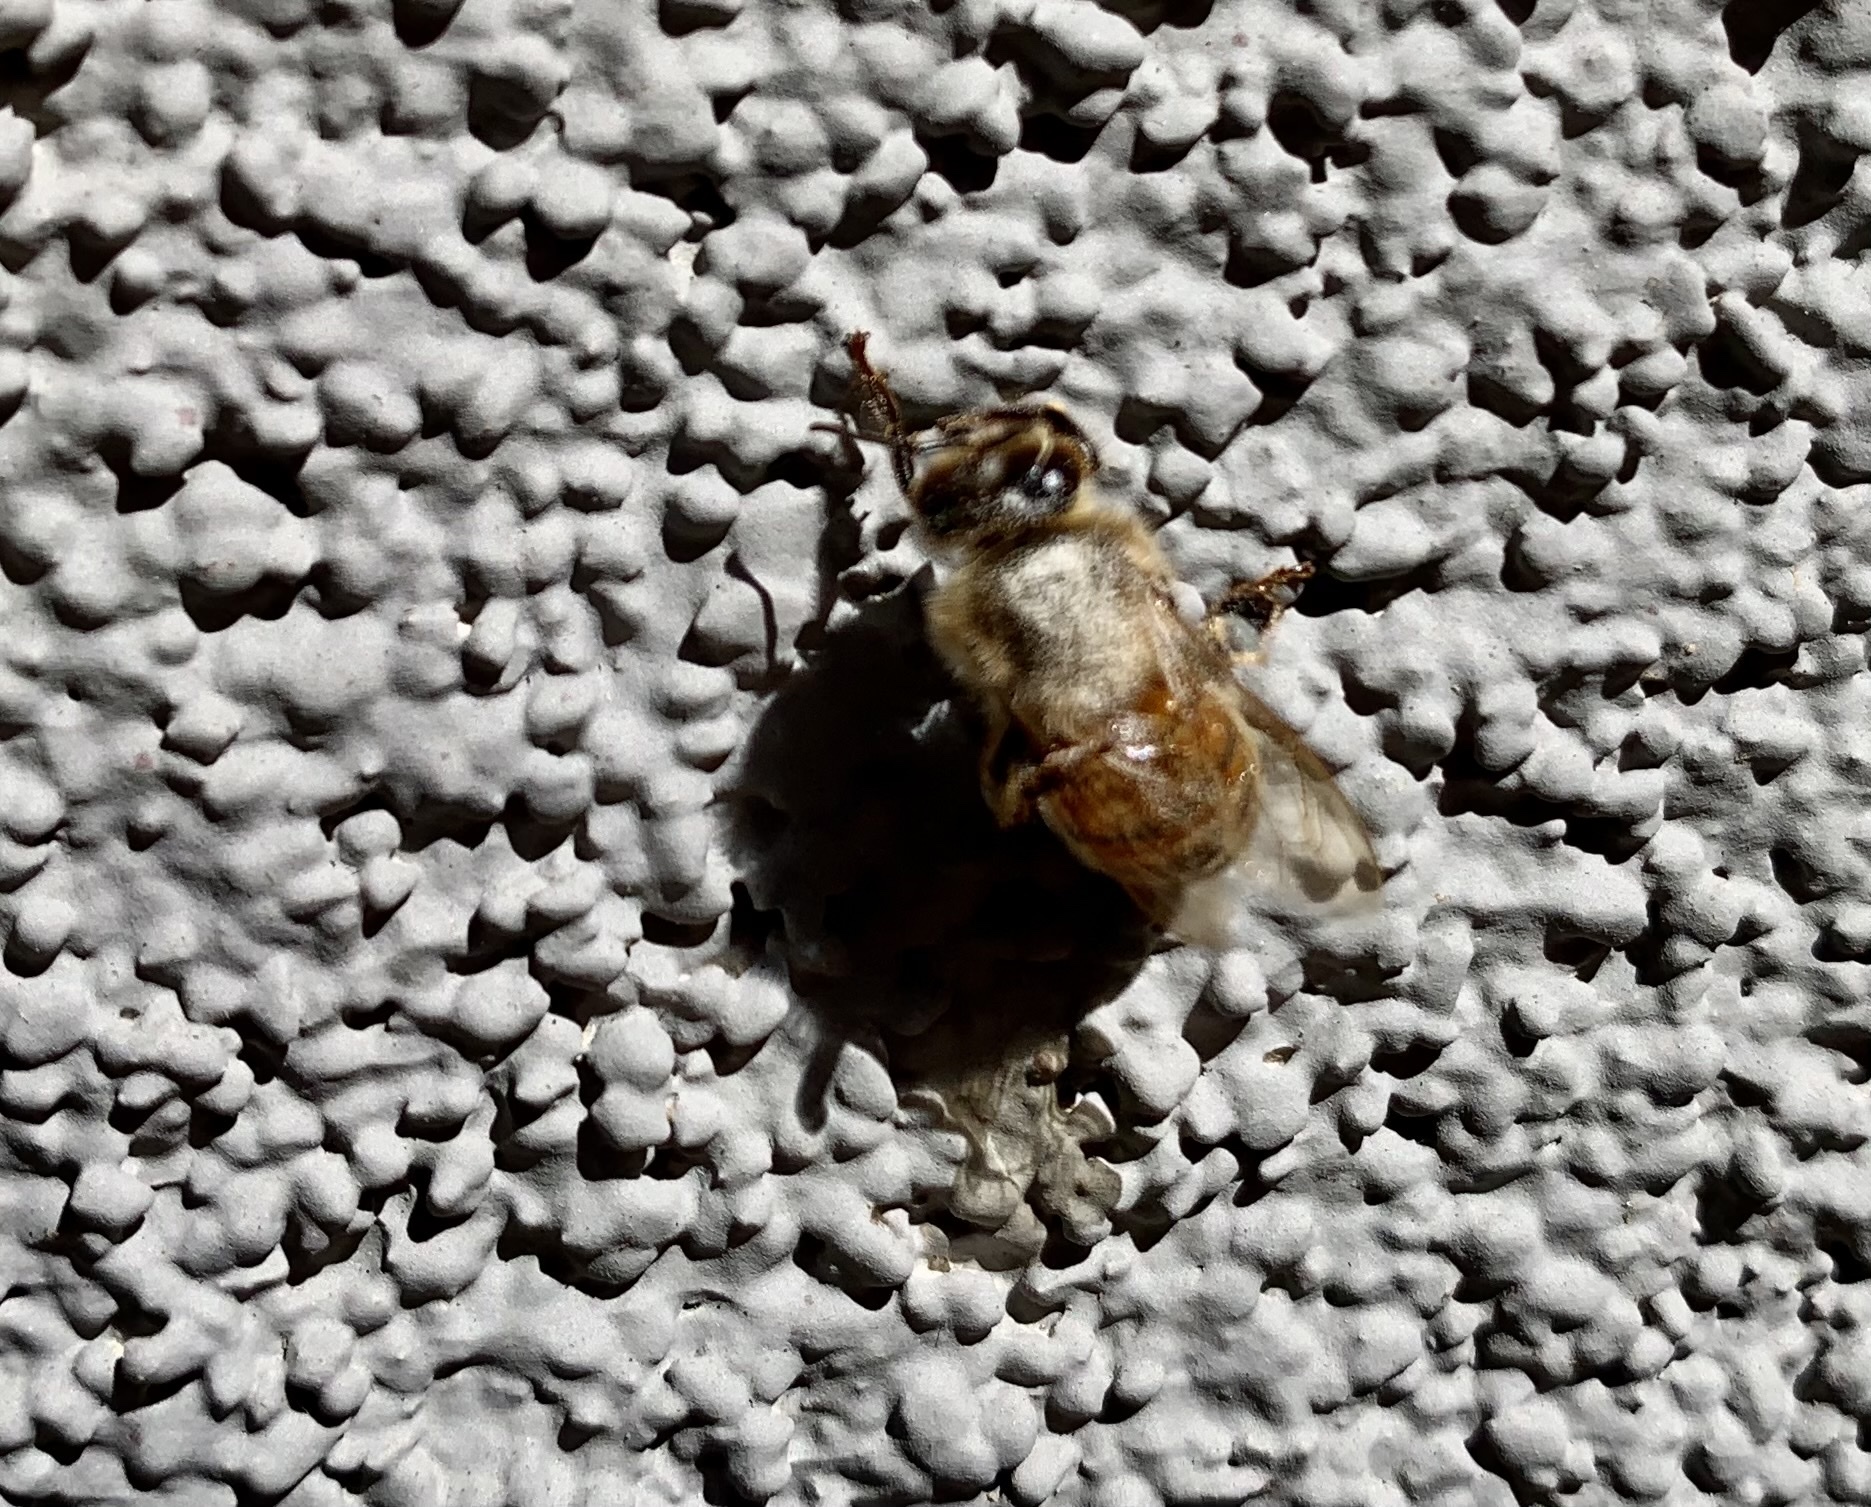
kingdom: Animalia
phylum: Arthropoda
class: Insecta
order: Hymenoptera
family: Apidae
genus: Apis
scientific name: Apis mellifera
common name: Honey bee
